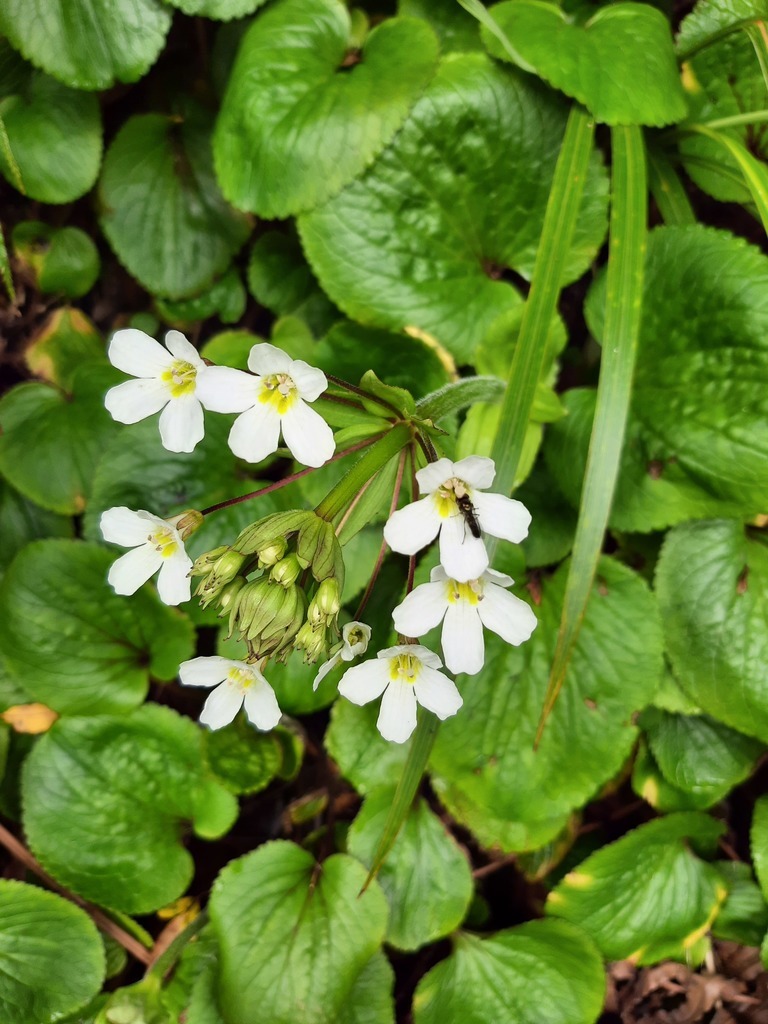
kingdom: Plantae
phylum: Tracheophyta
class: Magnoliopsida
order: Lamiales
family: Plantaginaceae
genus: Ourisia
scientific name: Ourisia macrophylla
